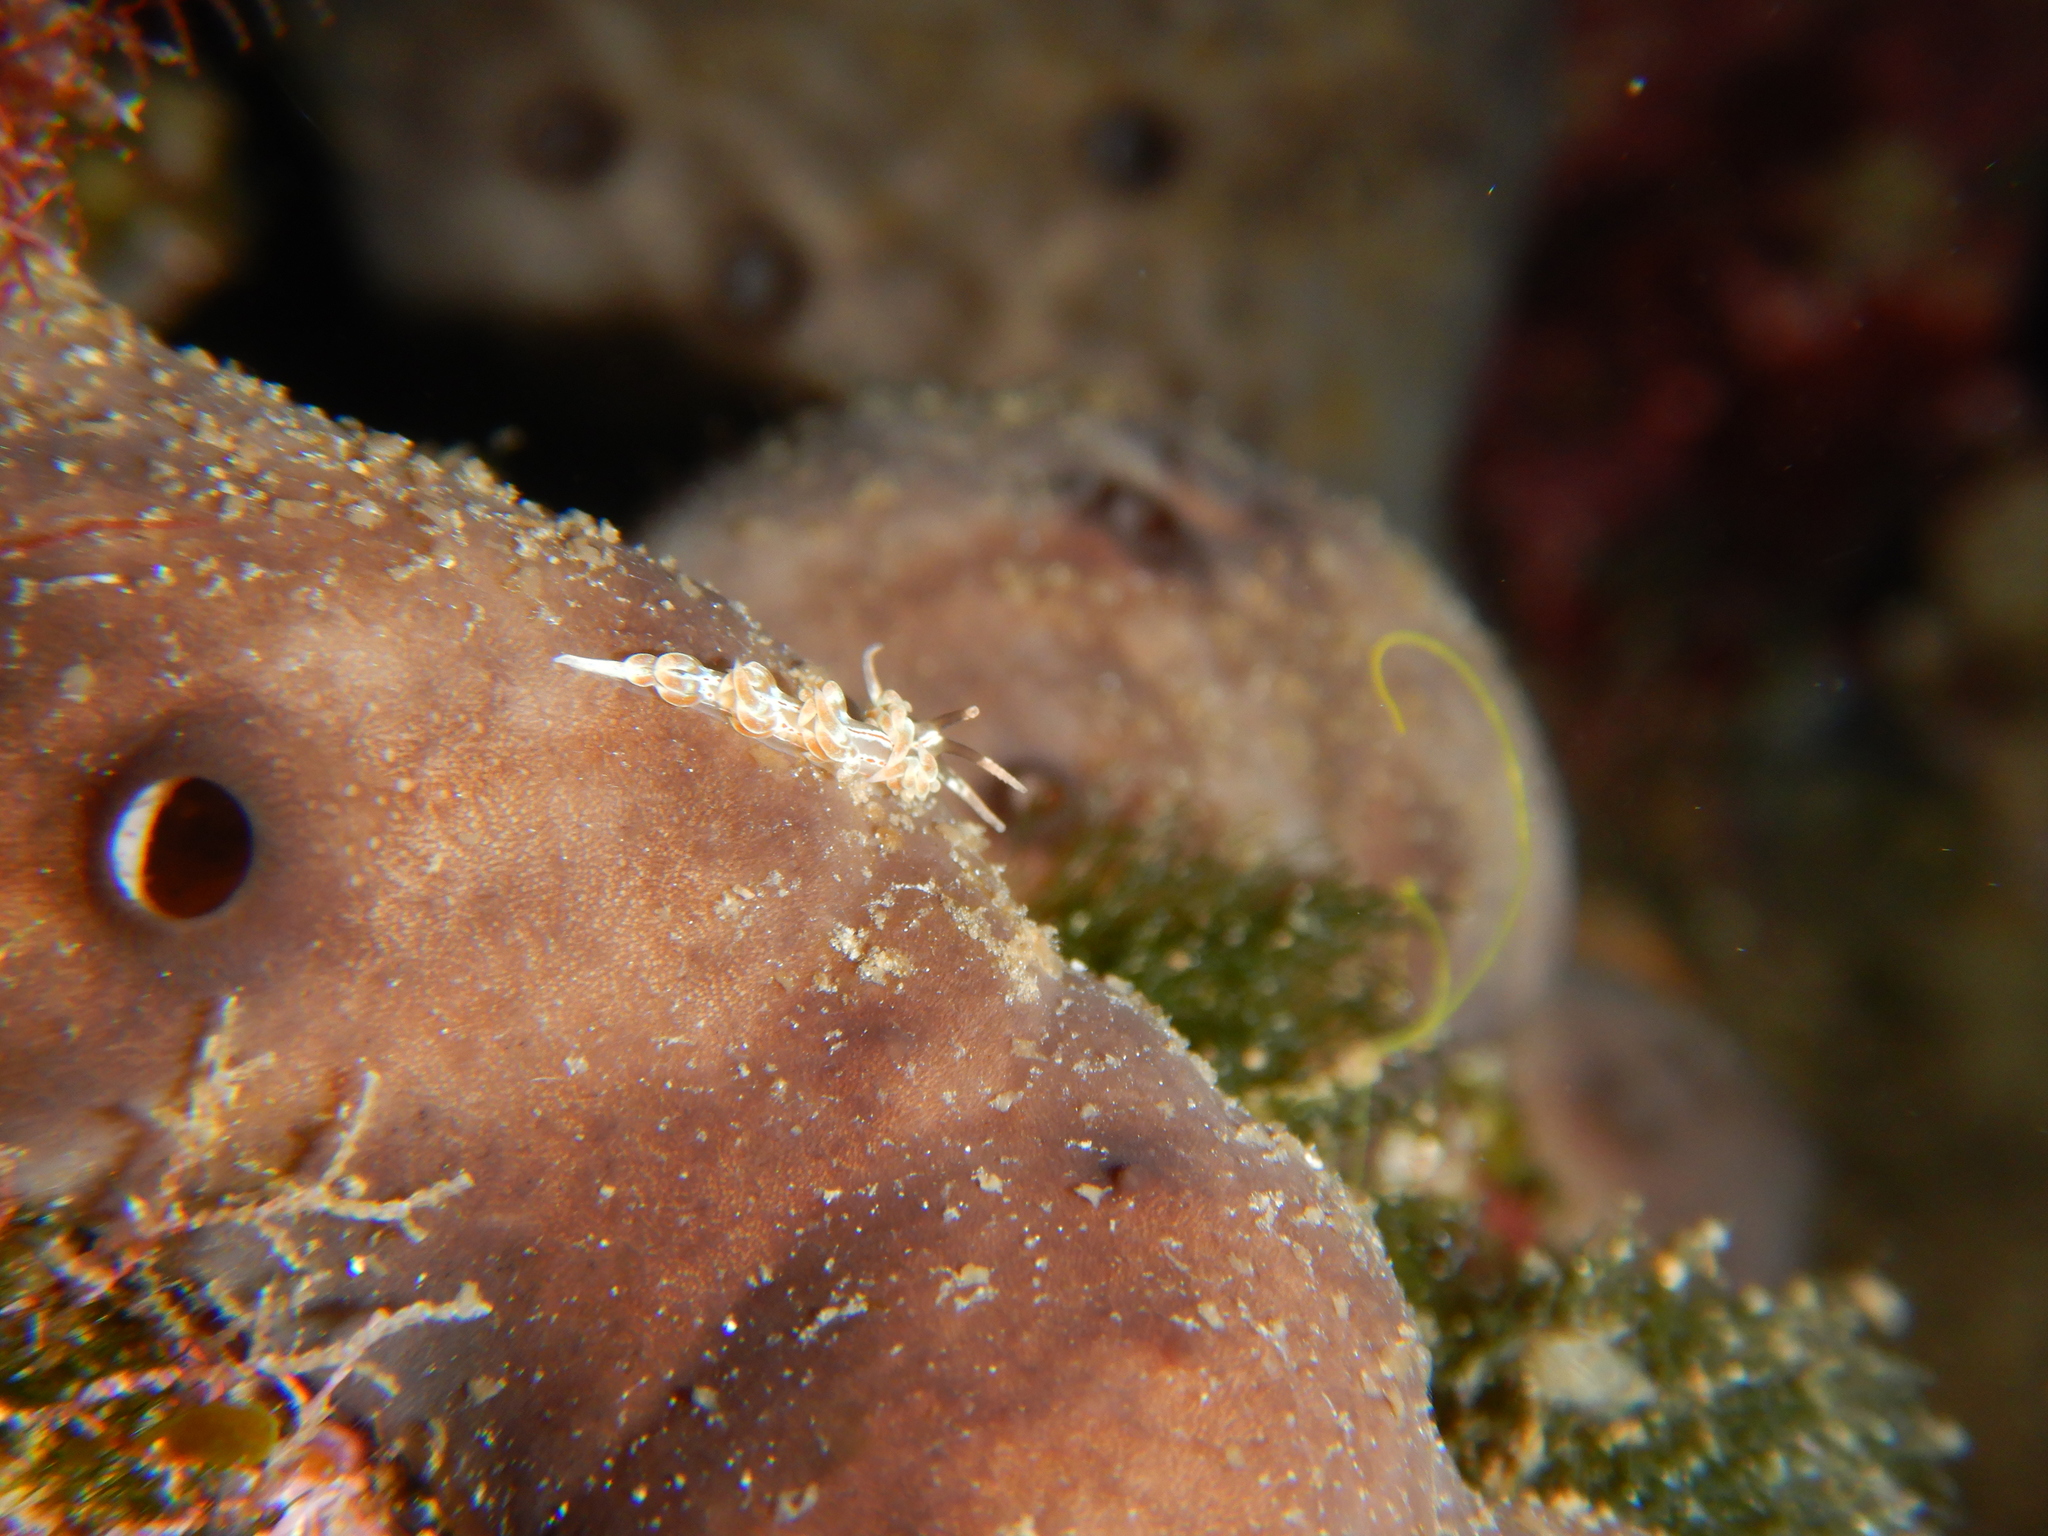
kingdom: Animalia
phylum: Mollusca
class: Gastropoda
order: Nudibranchia
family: Facelinidae
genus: Facelina
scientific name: Facelina rubrovittata
